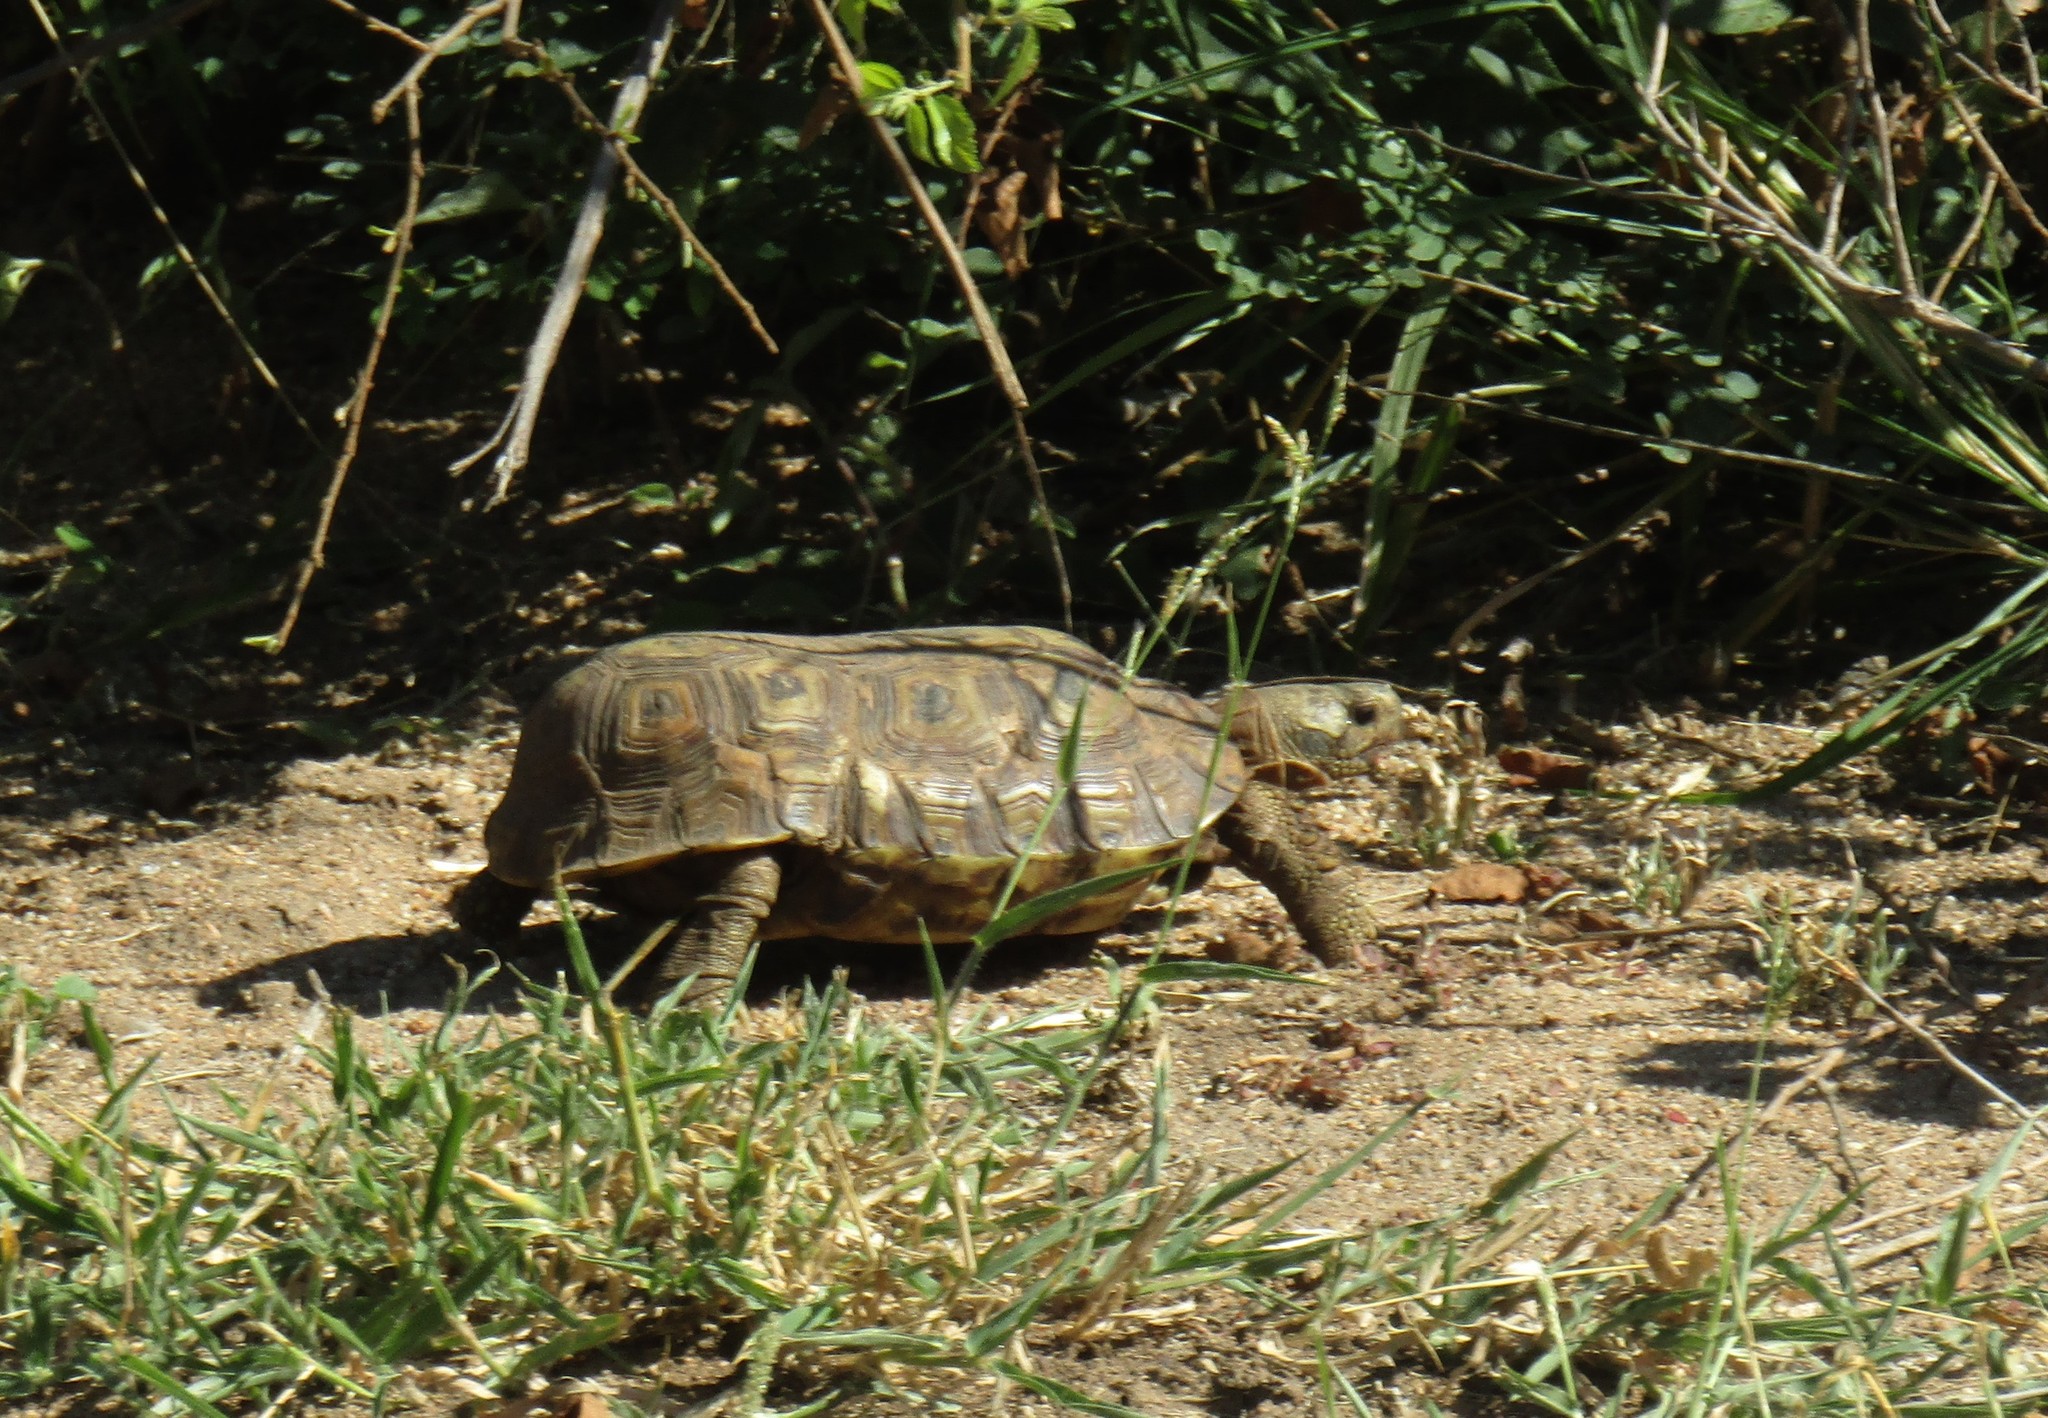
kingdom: Animalia
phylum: Chordata
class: Testudines
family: Testudinidae
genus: Kinixys
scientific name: Kinixys spekii
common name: Speke's hingeback tortoise
